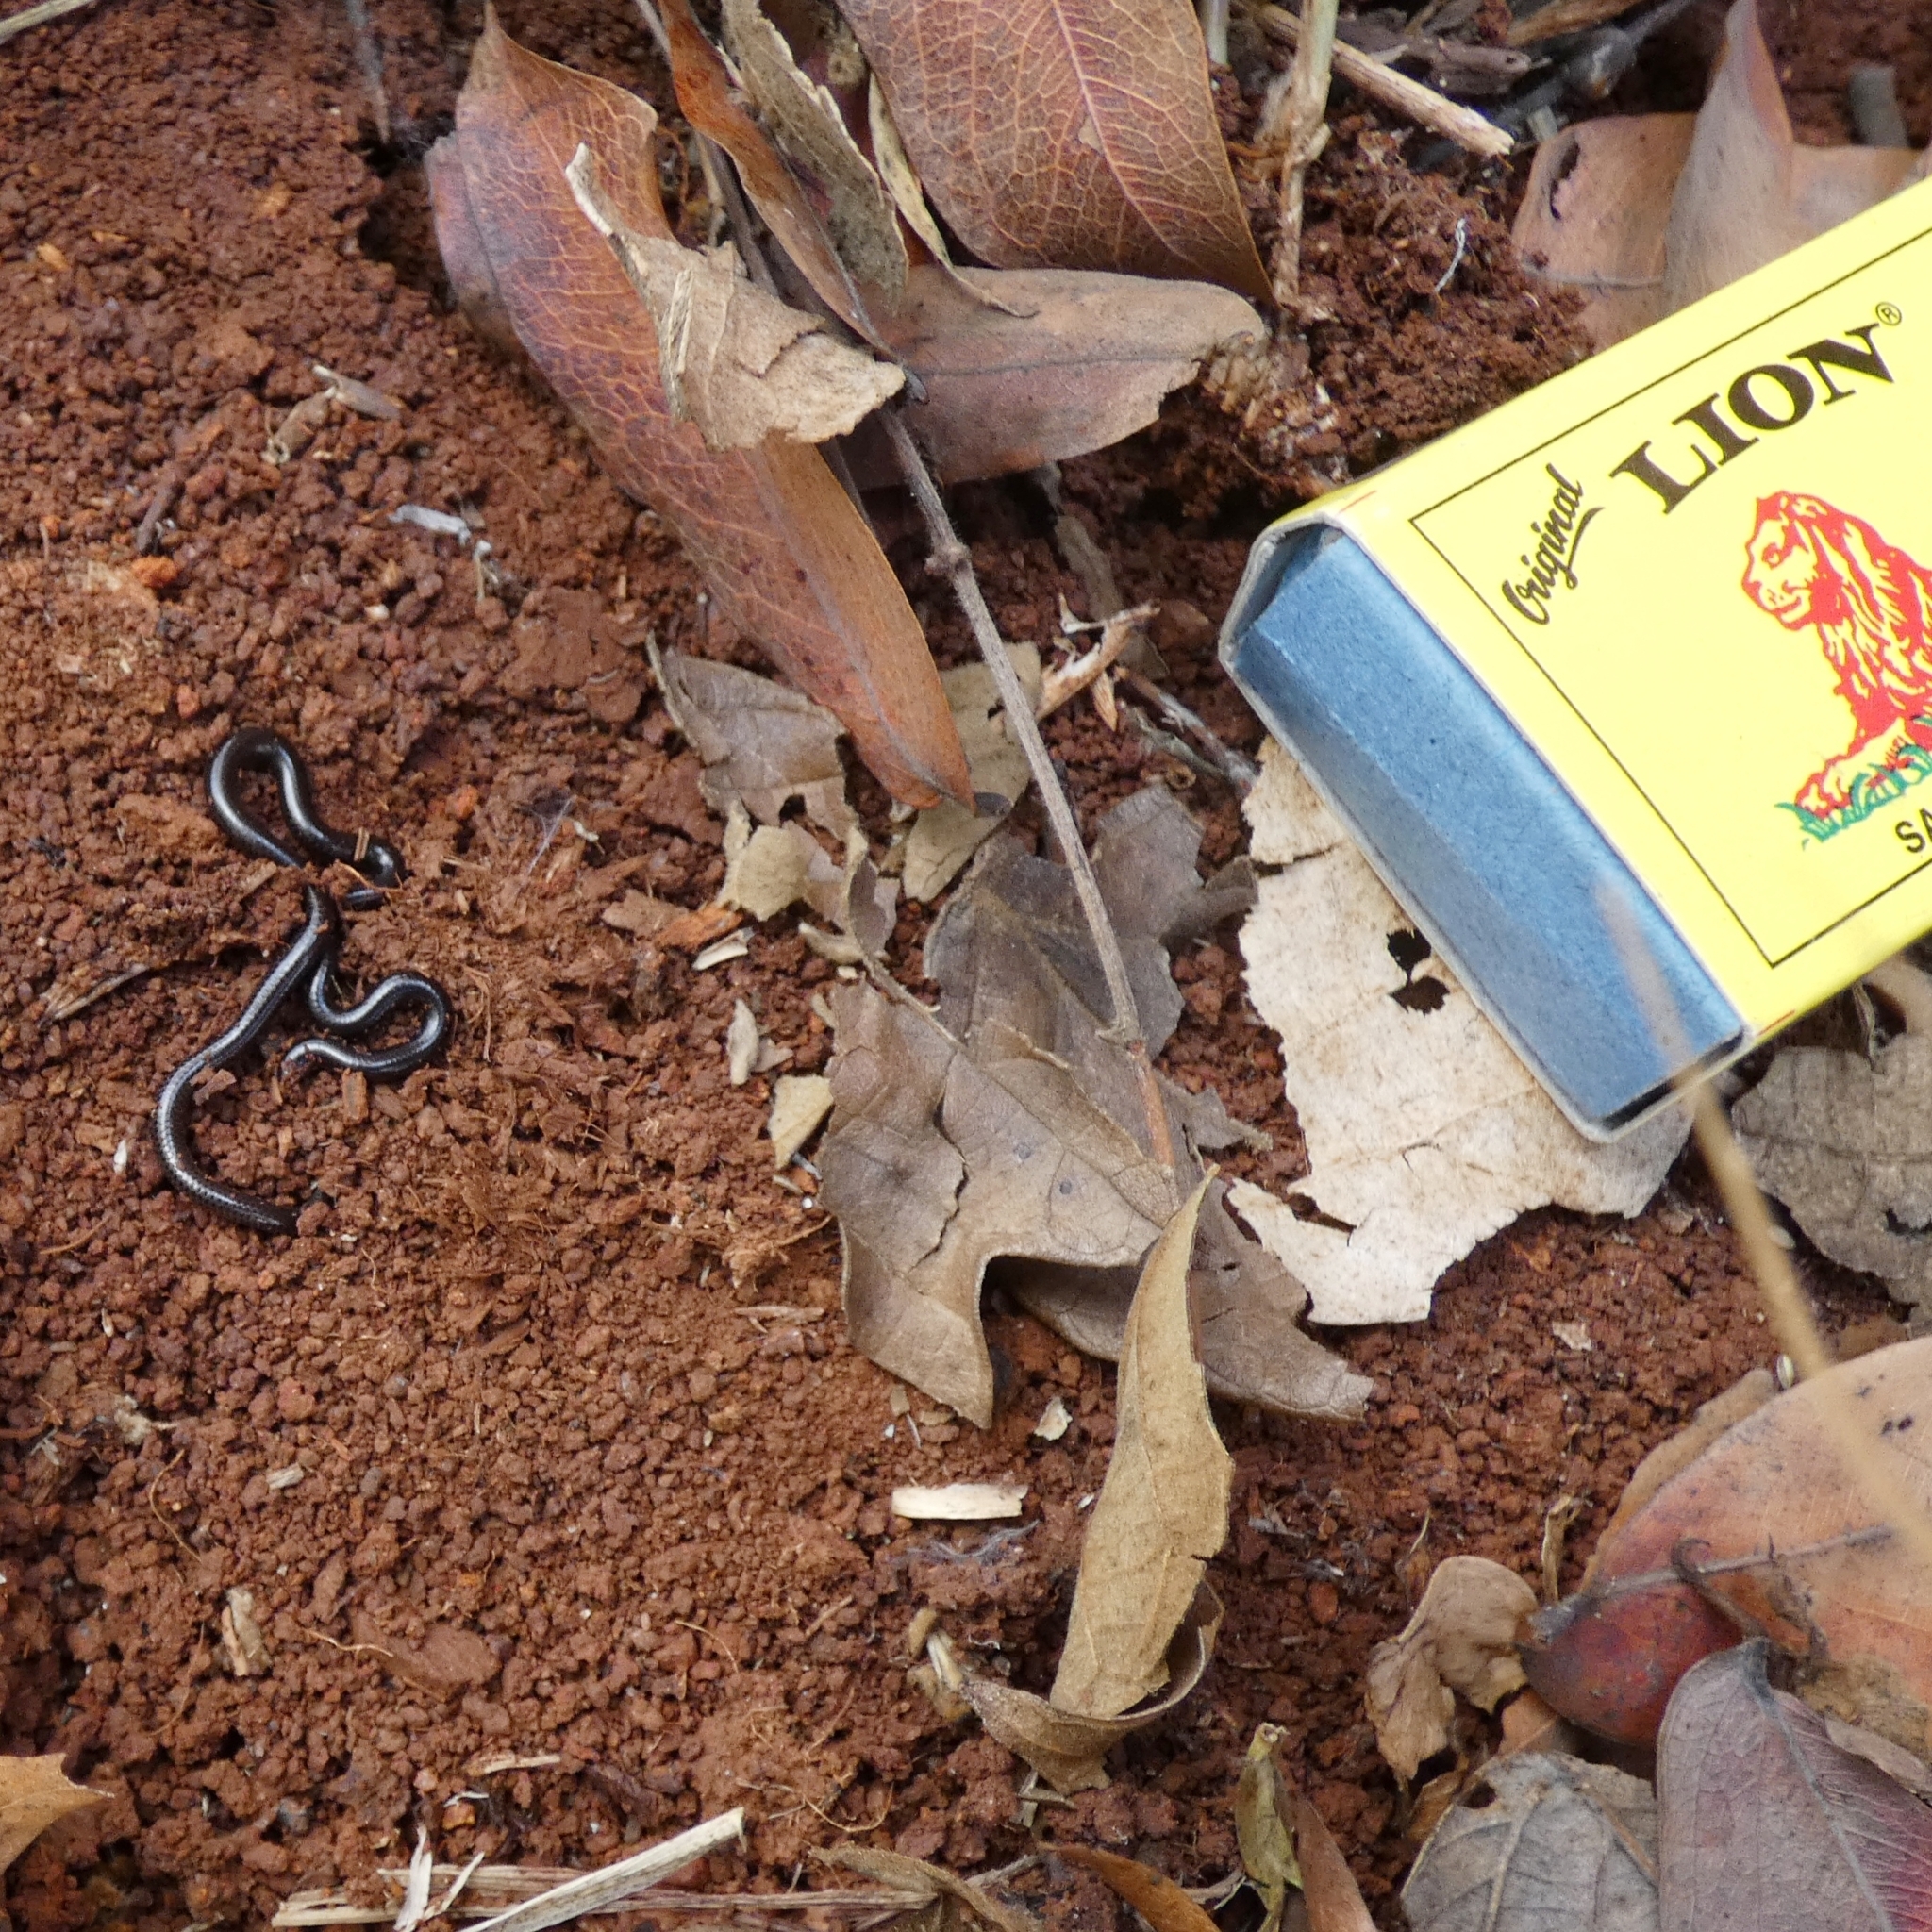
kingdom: Animalia
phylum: Chordata
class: Squamata
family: Leptotyphlopidae
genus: Leptotyphlops
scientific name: Leptotyphlops scutifrons
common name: Peter's thread snake
